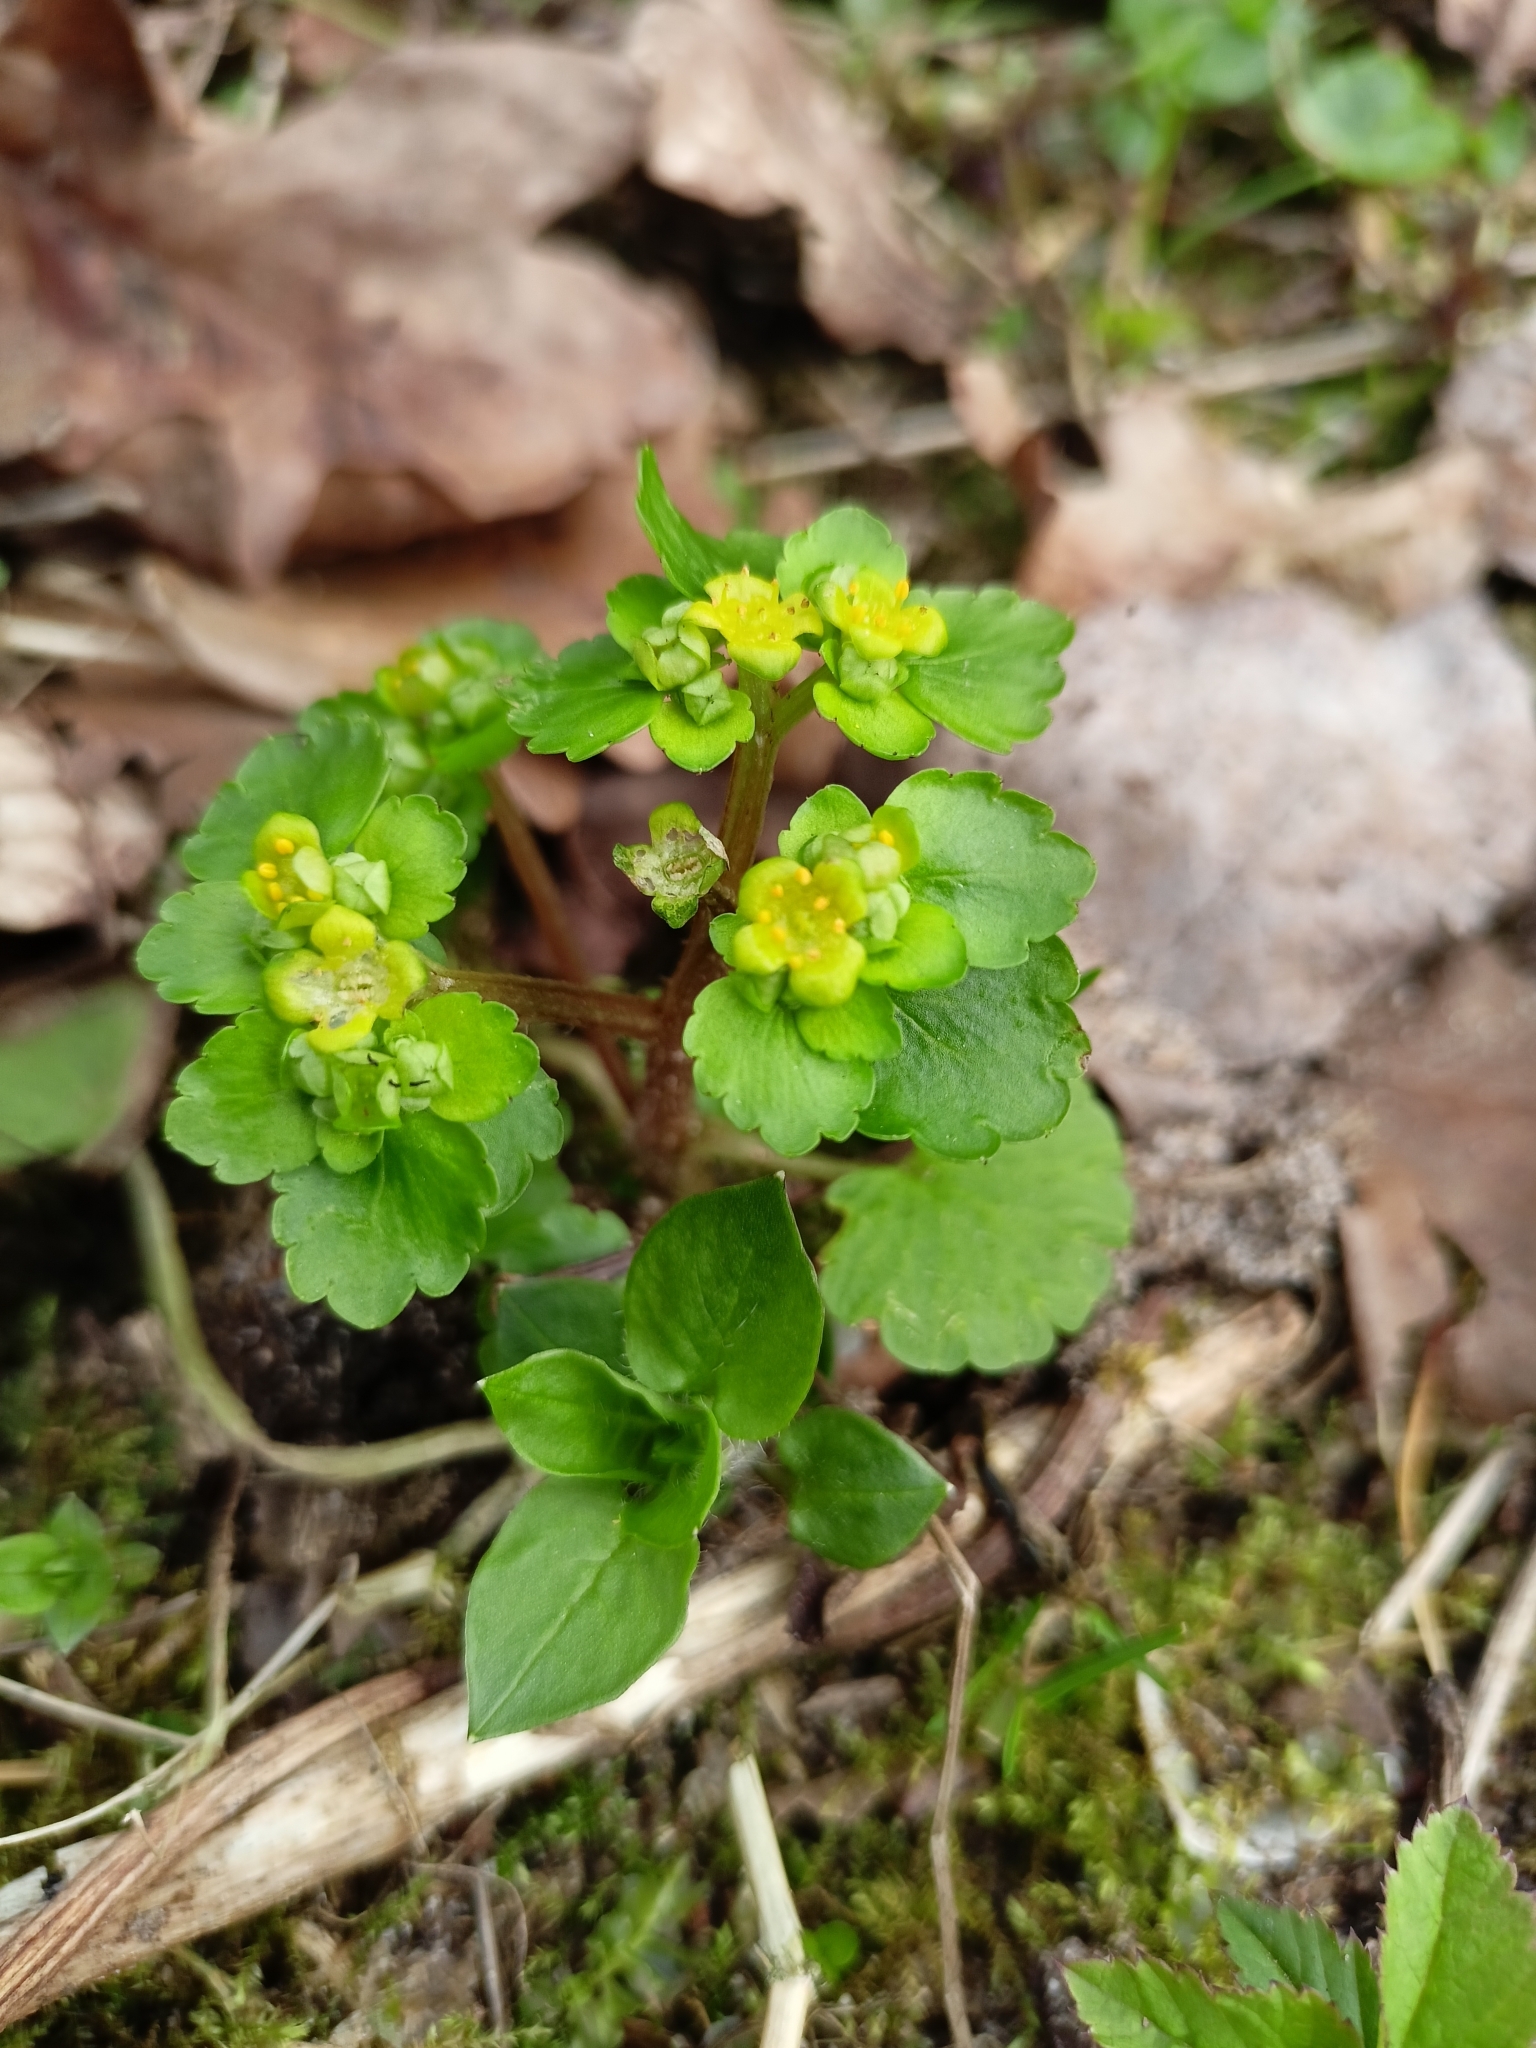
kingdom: Plantae
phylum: Tracheophyta
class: Magnoliopsida
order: Saxifragales
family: Saxifragaceae
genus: Chrysosplenium
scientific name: Chrysosplenium alternifolium
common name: Alternate-leaved golden-saxifrage
